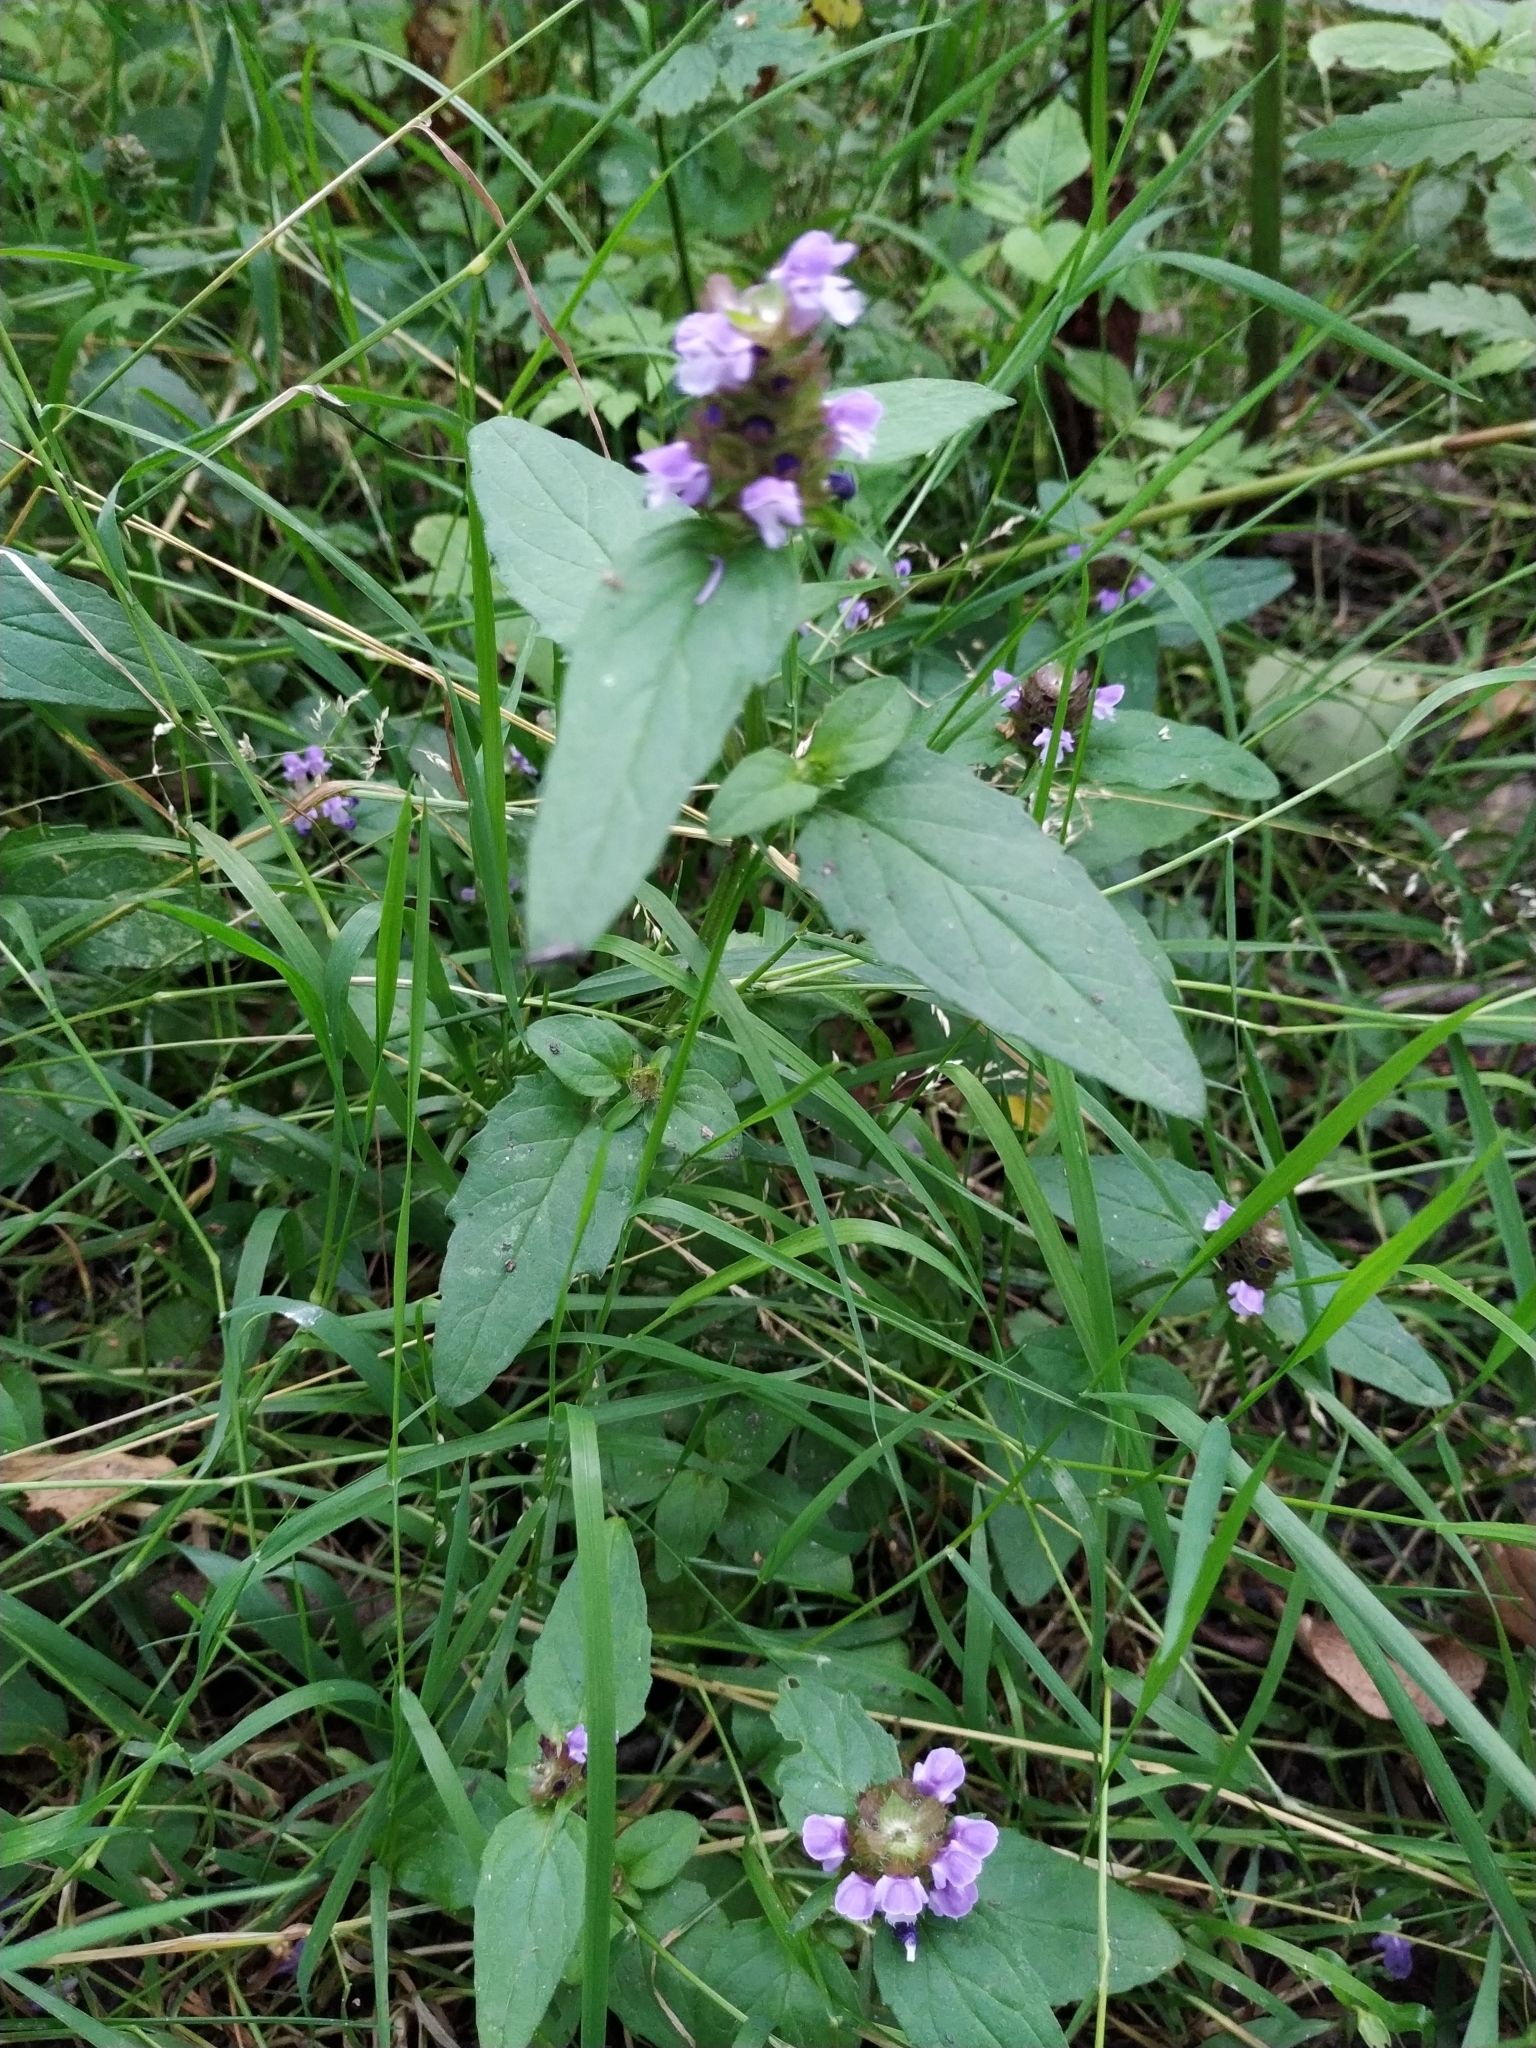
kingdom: Plantae
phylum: Tracheophyta
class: Magnoliopsida
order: Lamiales
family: Lamiaceae
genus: Prunella
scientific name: Prunella vulgaris
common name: Heal-all
